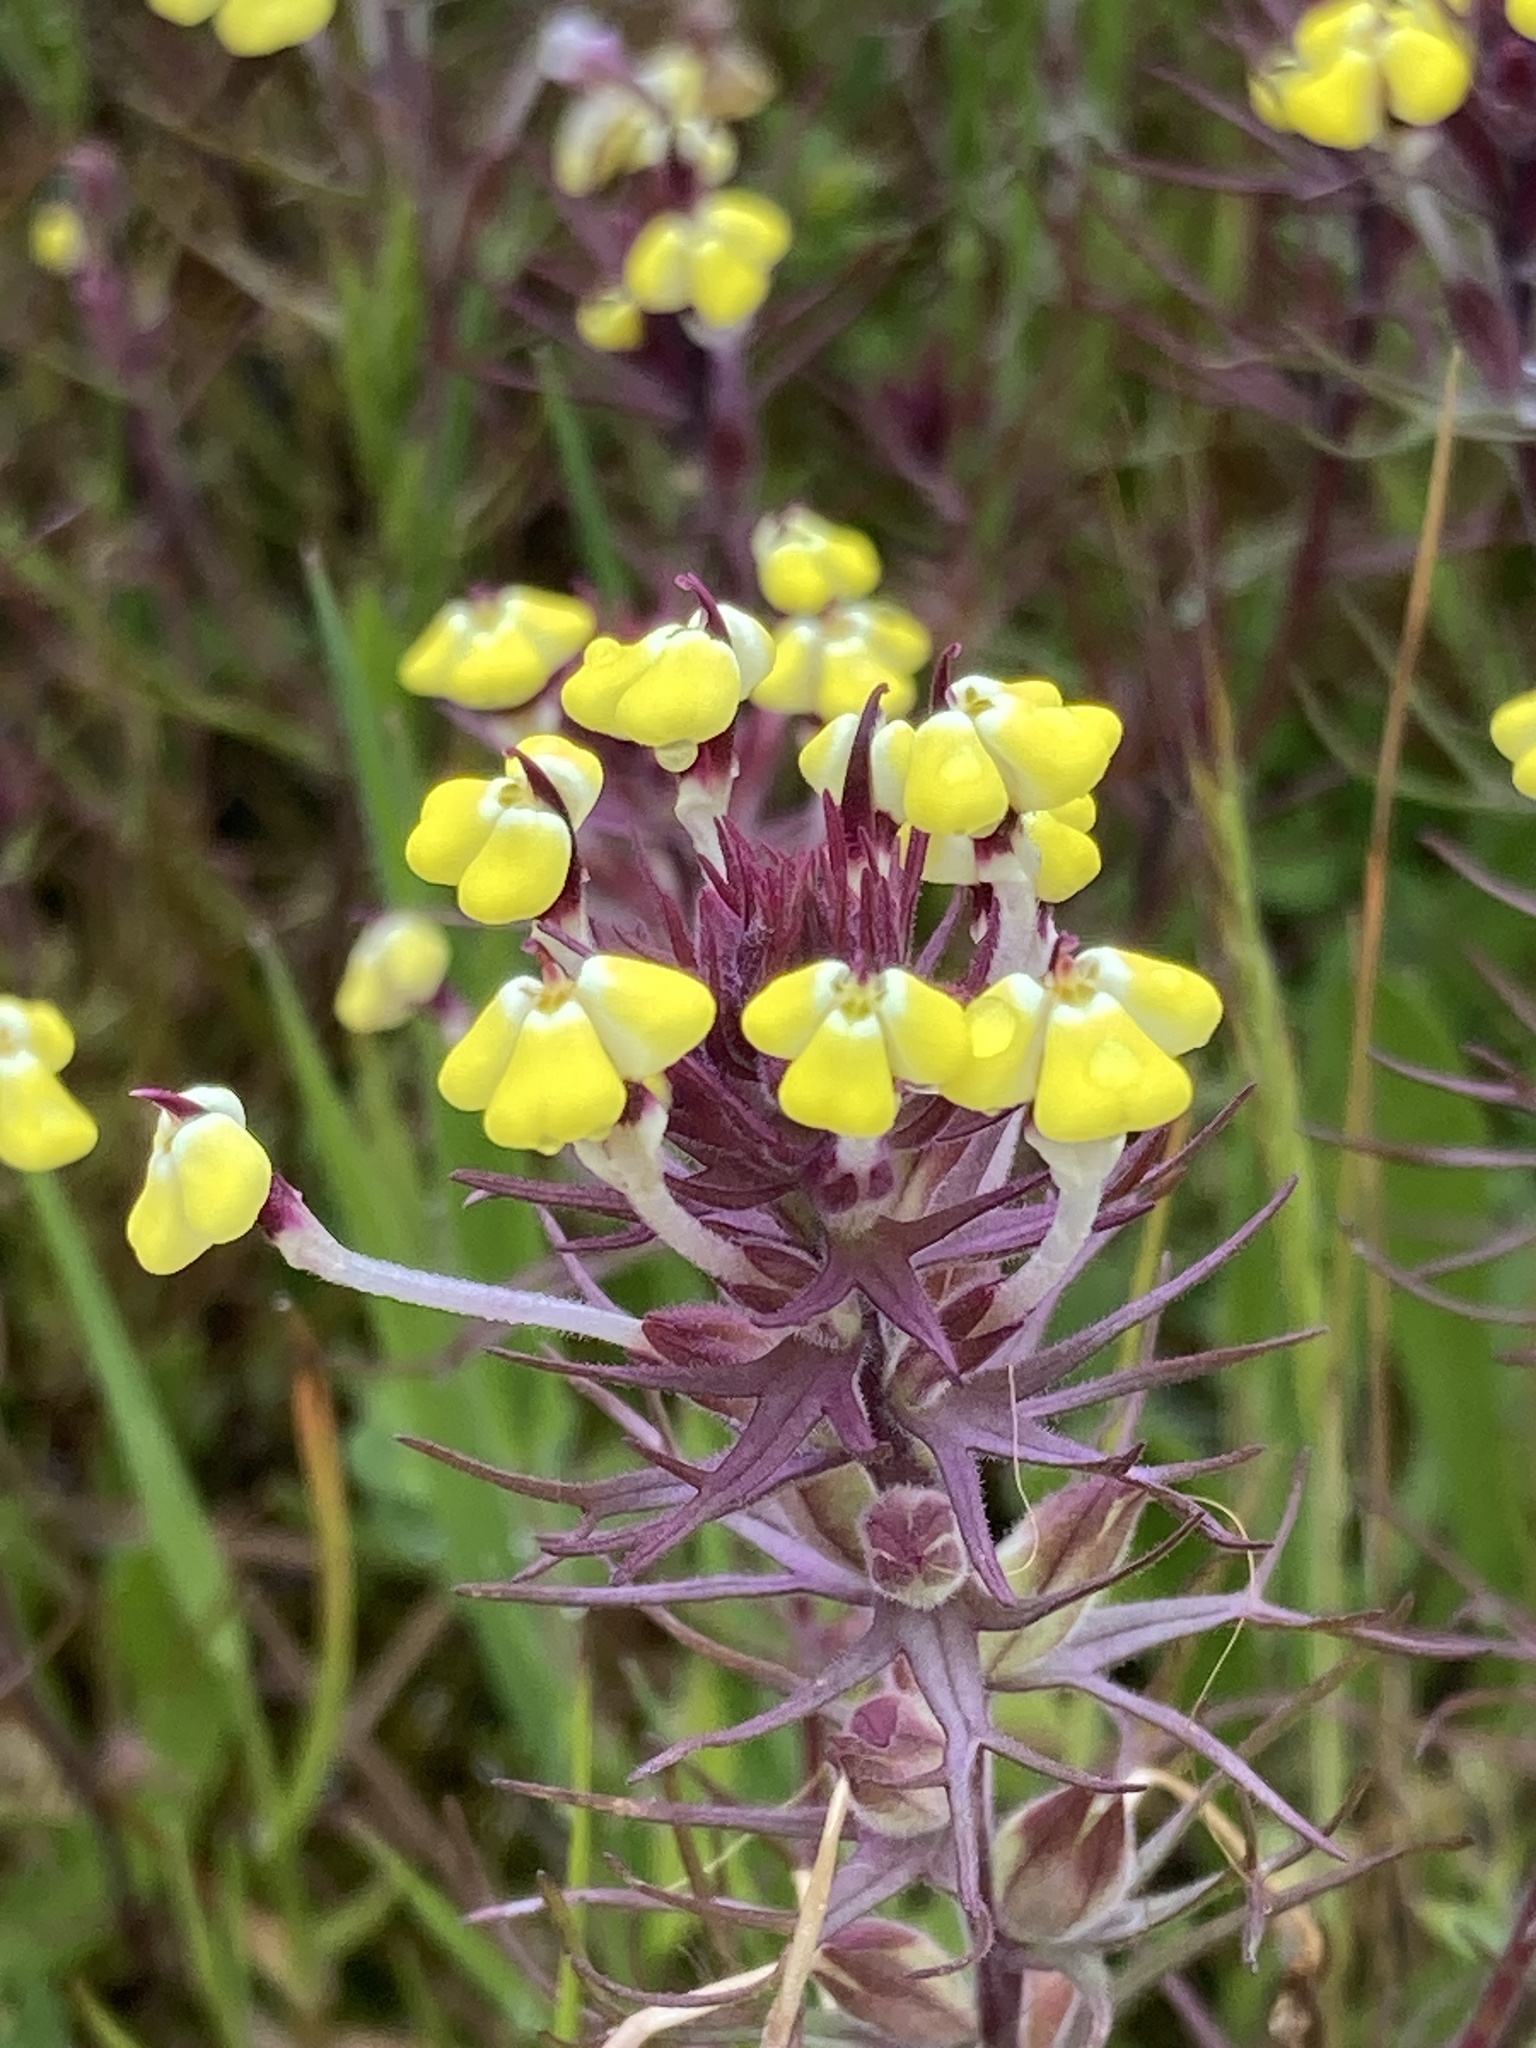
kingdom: Plantae
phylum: Tracheophyta
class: Magnoliopsida
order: Lamiales
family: Orobanchaceae
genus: Triphysaria
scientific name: Triphysaria eriantha
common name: Johnny-tuck
